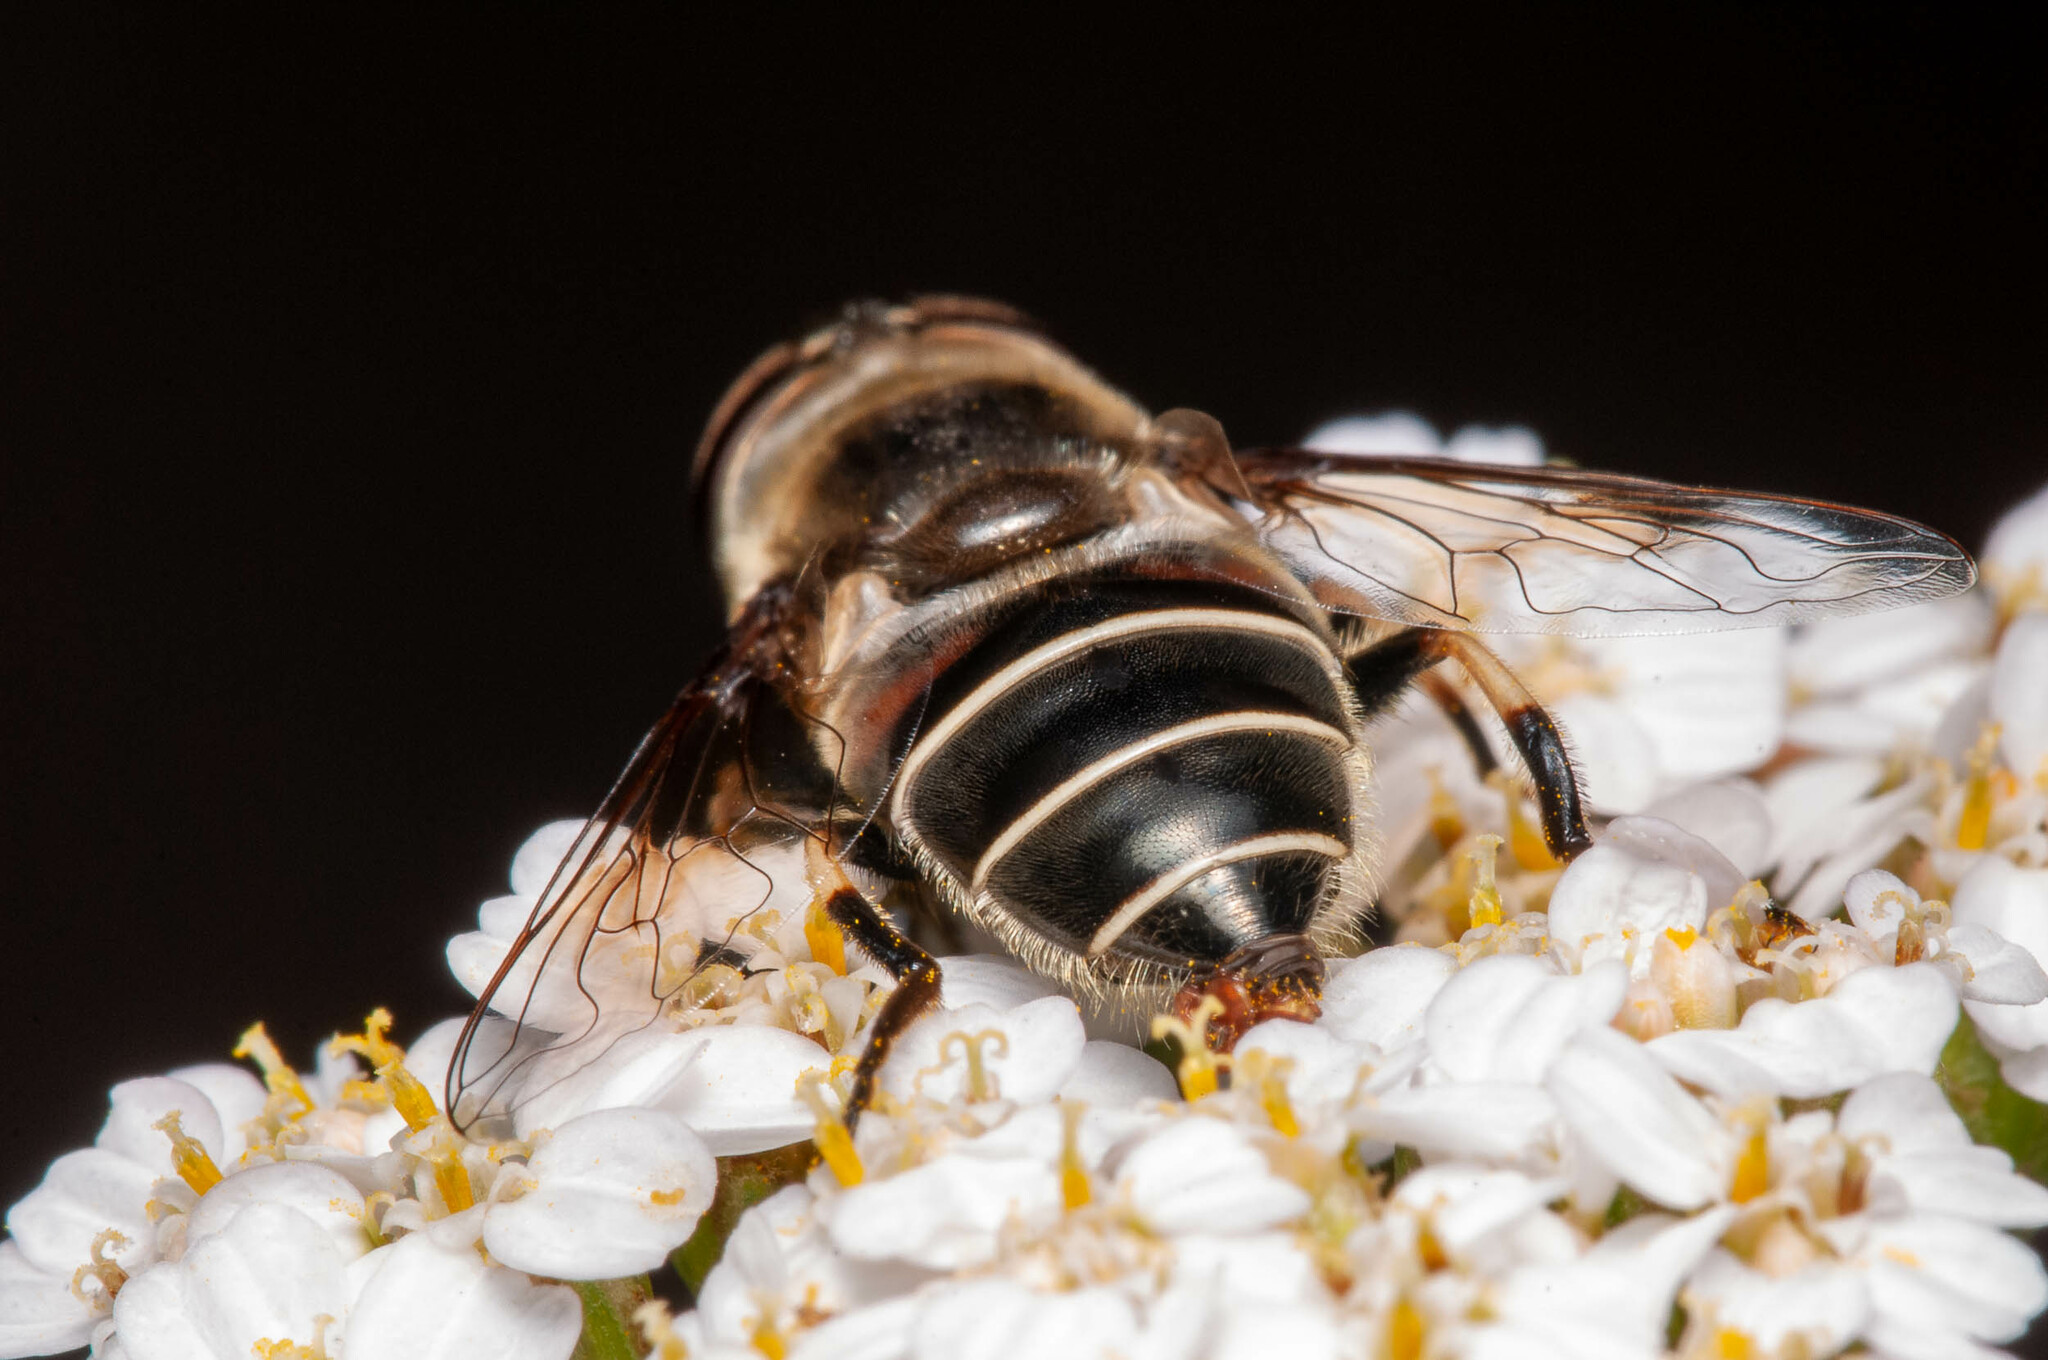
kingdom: Animalia
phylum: Arthropoda
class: Insecta
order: Diptera
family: Syrphidae
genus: Eristalis
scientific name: Eristalis dimidiata
